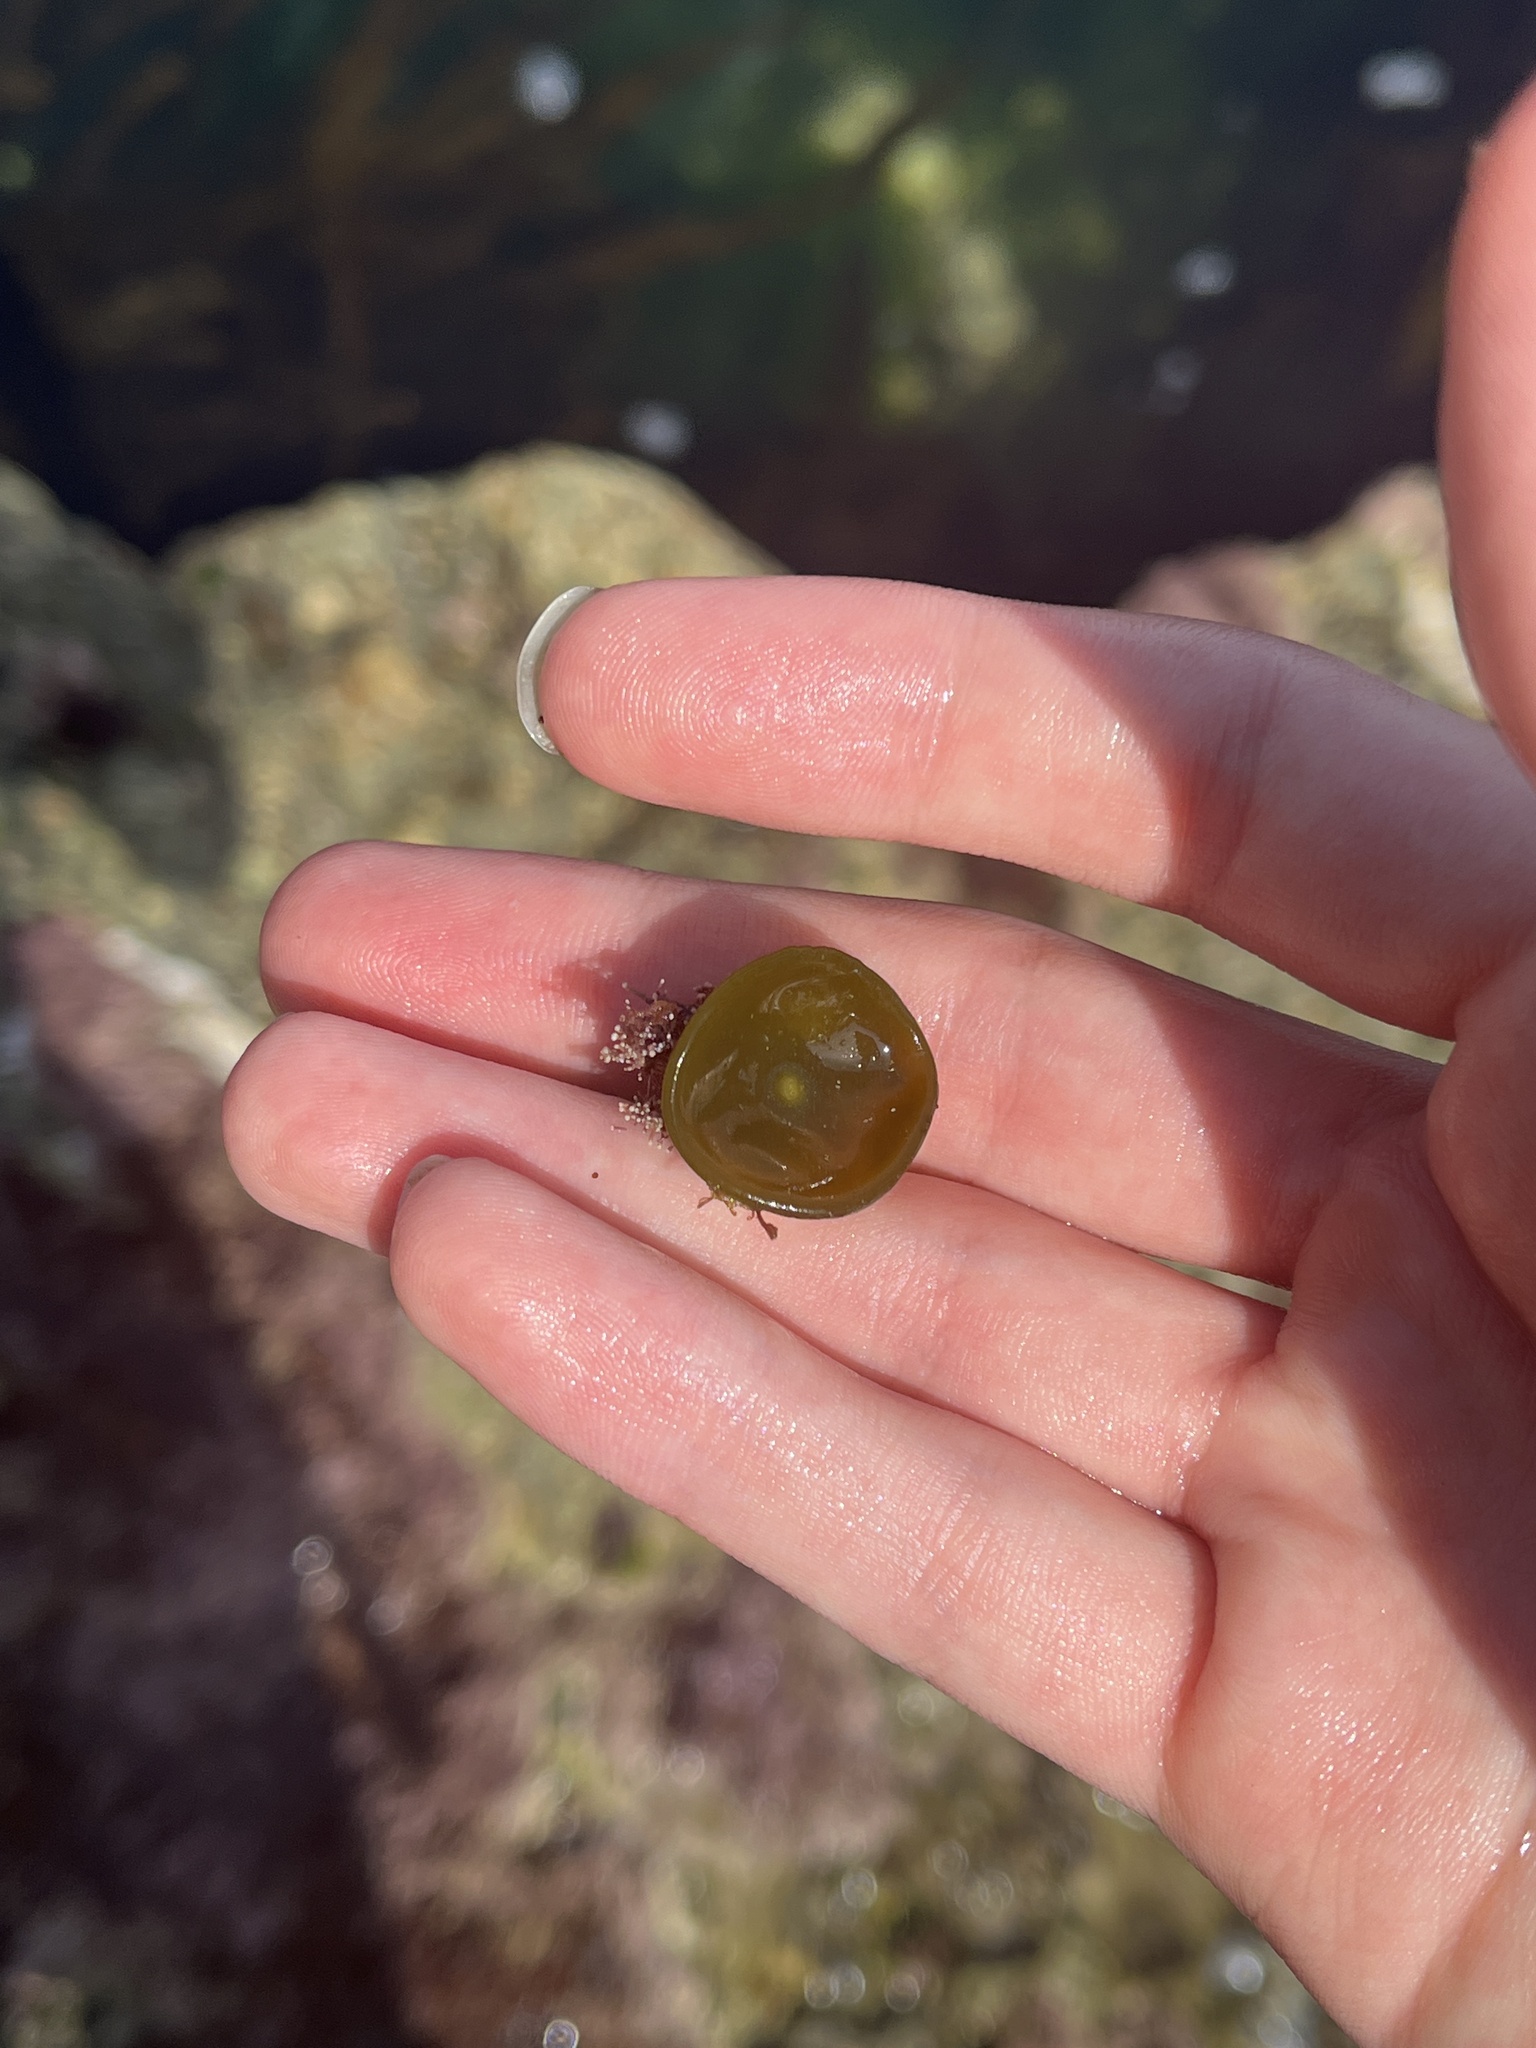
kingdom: Chromista
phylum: Ochrophyta
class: Phaeophyceae
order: Fucales
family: Himanthaliaceae
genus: Himanthalia
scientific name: Himanthalia elongata
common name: Sea-thong
